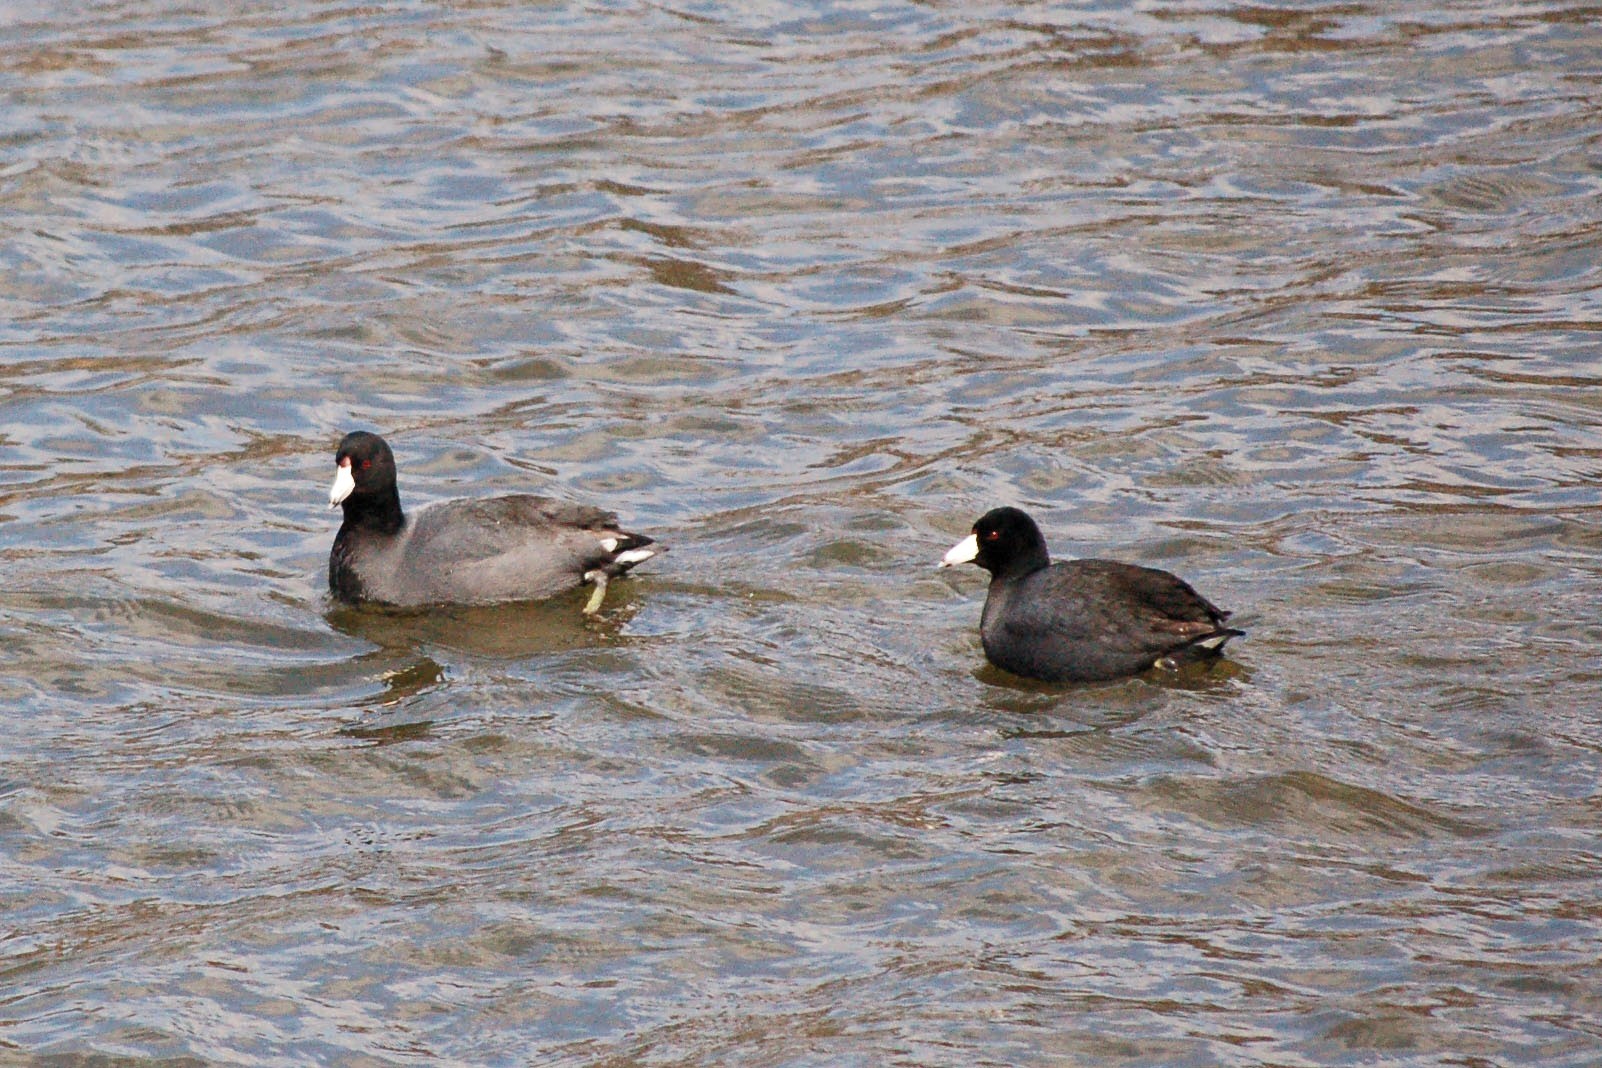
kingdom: Animalia
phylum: Chordata
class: Aves
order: Gruiformes
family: Rallidae
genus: Fulica
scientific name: Fulica americana
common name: American coot
